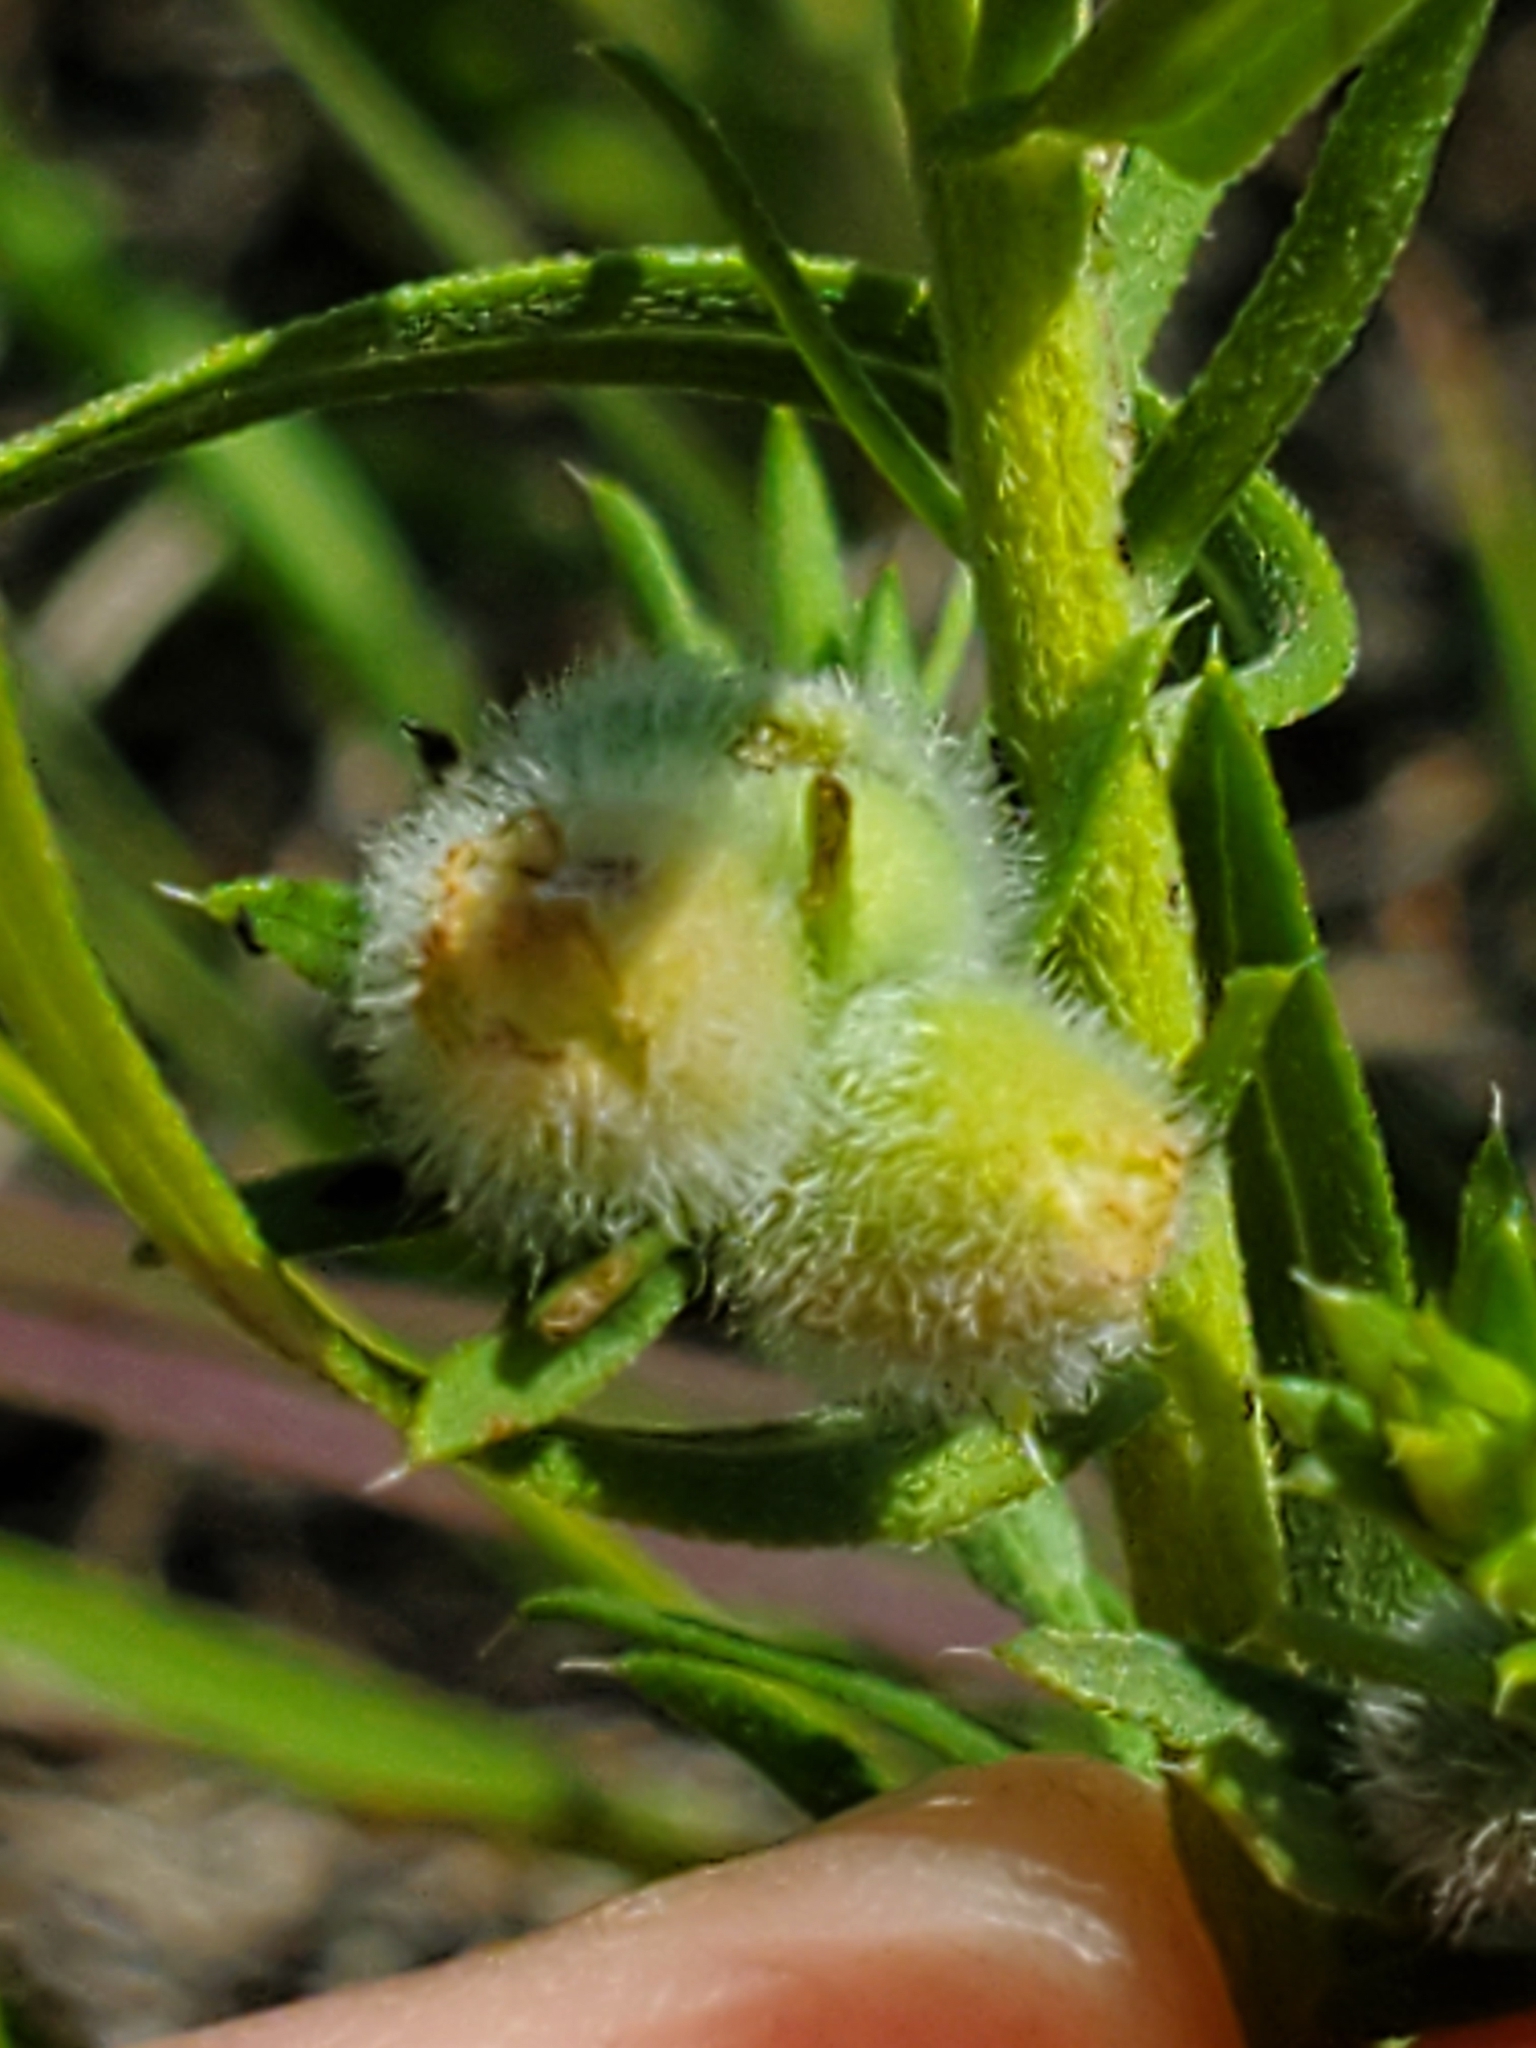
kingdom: Animalia
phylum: Arthropoda
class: Insecta
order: Diptera
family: Cecidomyiidae
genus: Rhopalomyia
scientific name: Rhopalomyia gemmaria
